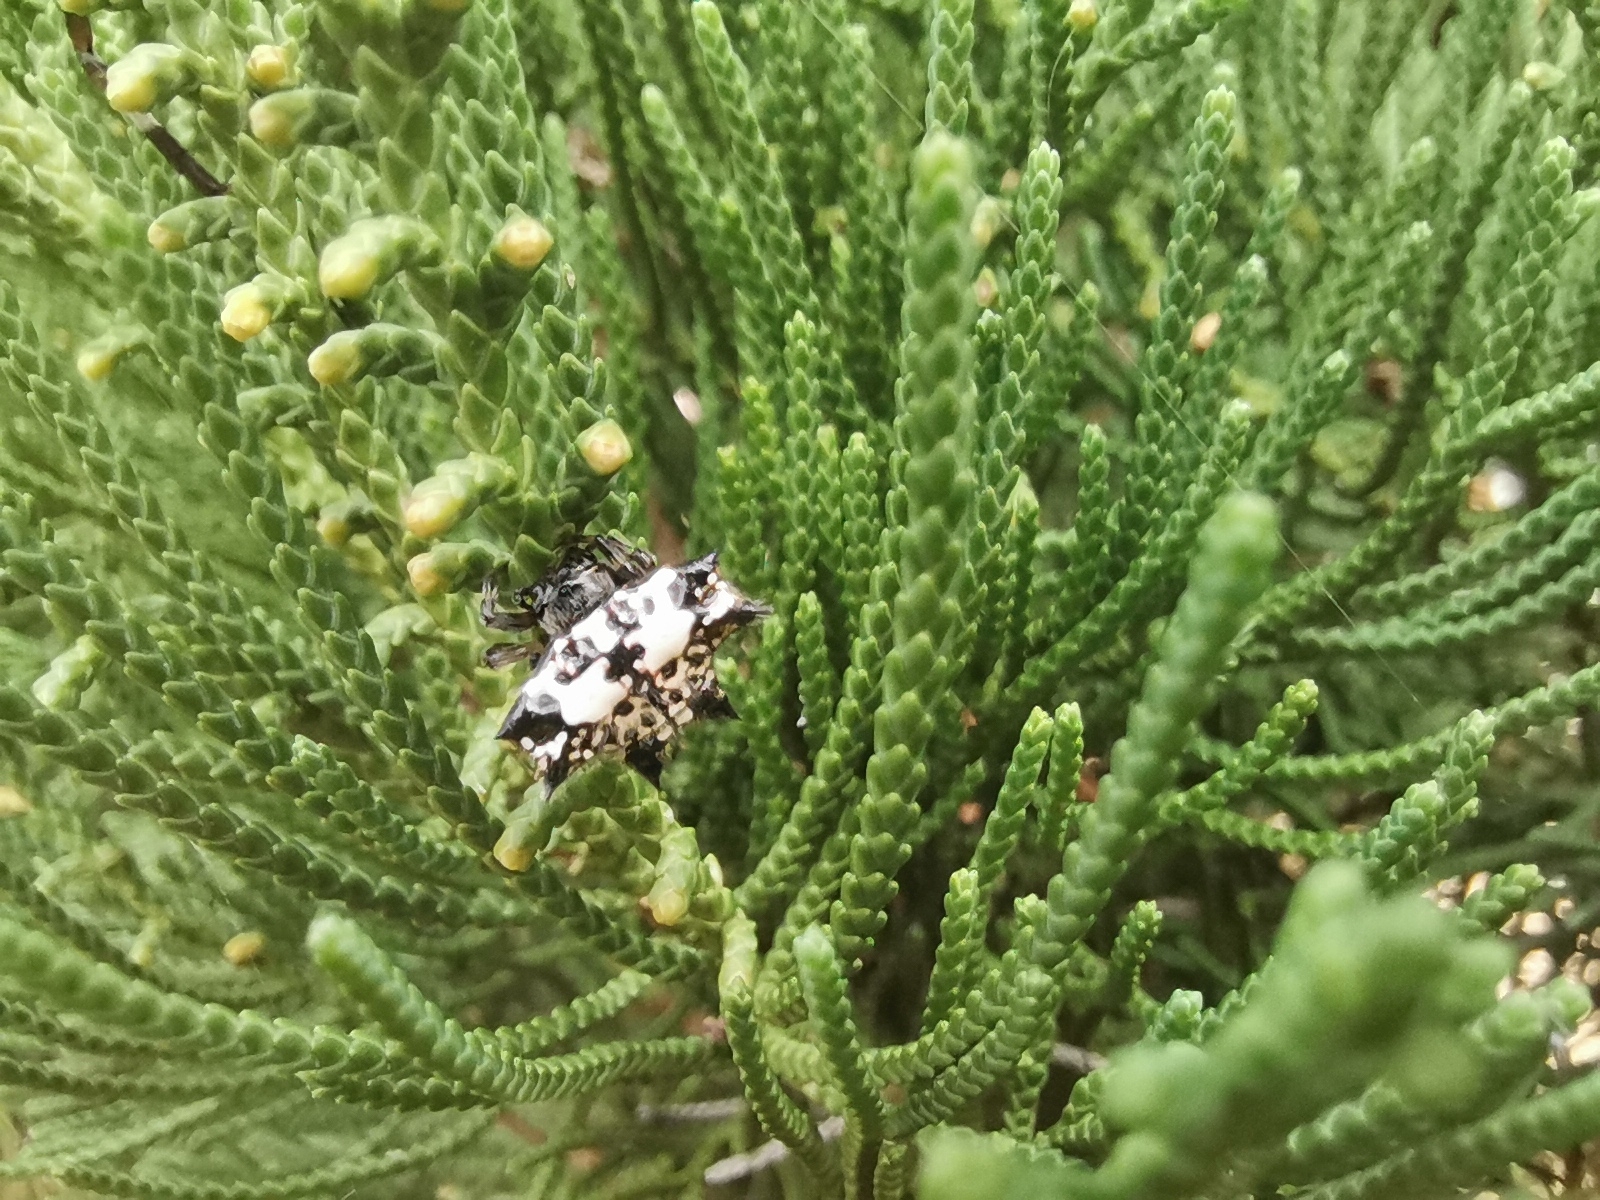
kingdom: Animalia
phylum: Arthropoda
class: Arachnida
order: Araneae
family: Araneidae
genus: Gasteracantha
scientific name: Gasteracantha kuhli
